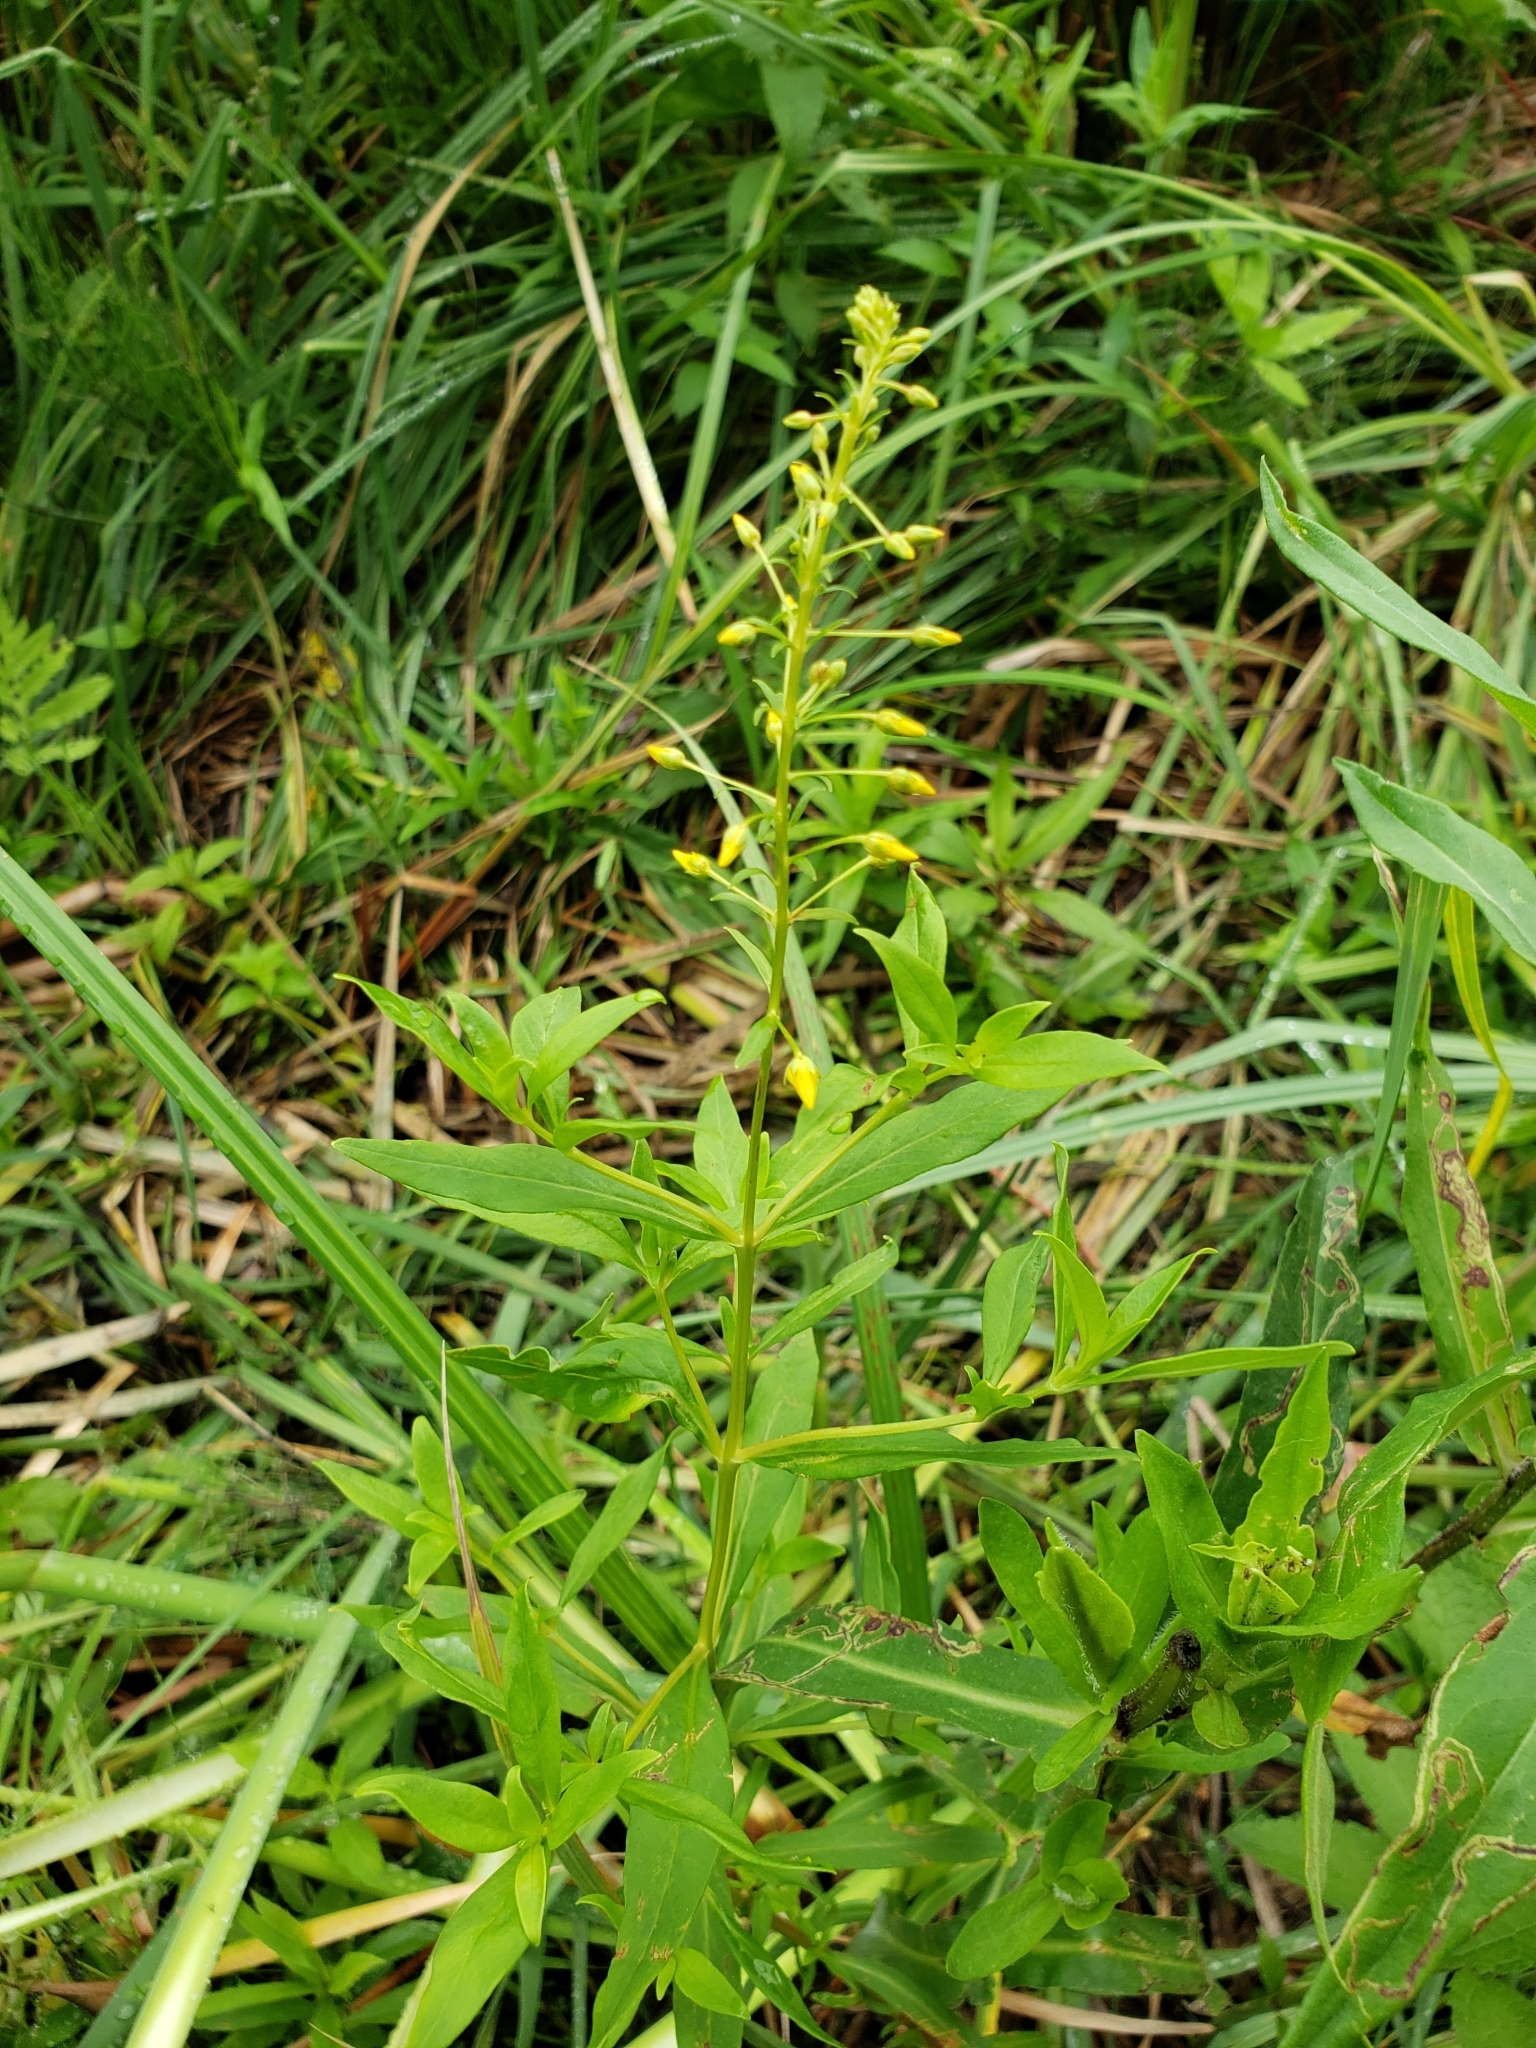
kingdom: Plantae
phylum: Tracheophyta
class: Magnoliopsida
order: Ericales
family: Primulaceae
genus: Lysimachia
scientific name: Lysimachia terrestris
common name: Lake loosestrife
